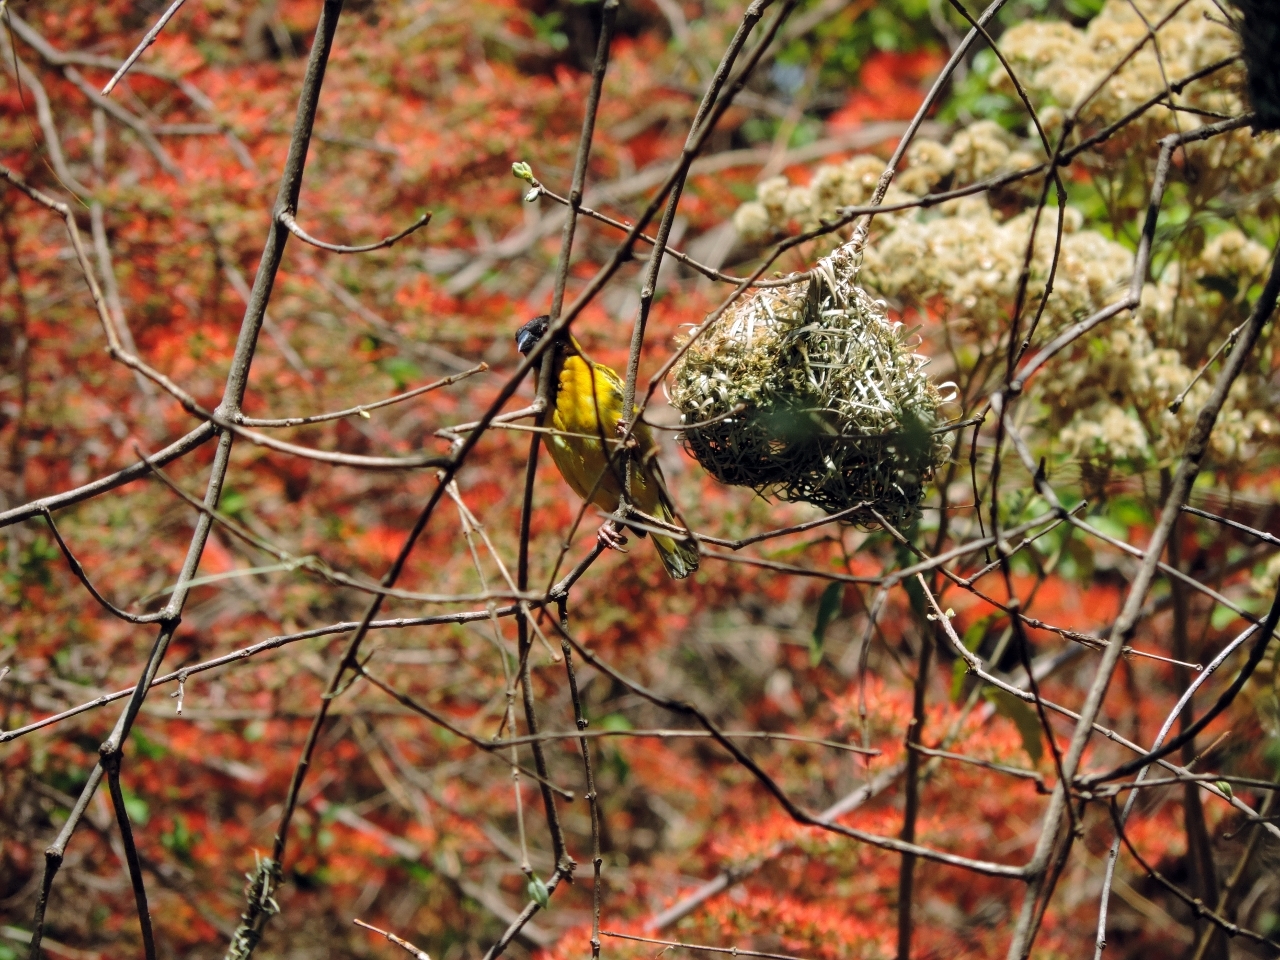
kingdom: Animalia
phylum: Chordata
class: Aves
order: Passeriformes
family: Ploceidae
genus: Ploceus
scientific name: Ploceus cucullatus
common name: Village weaver
